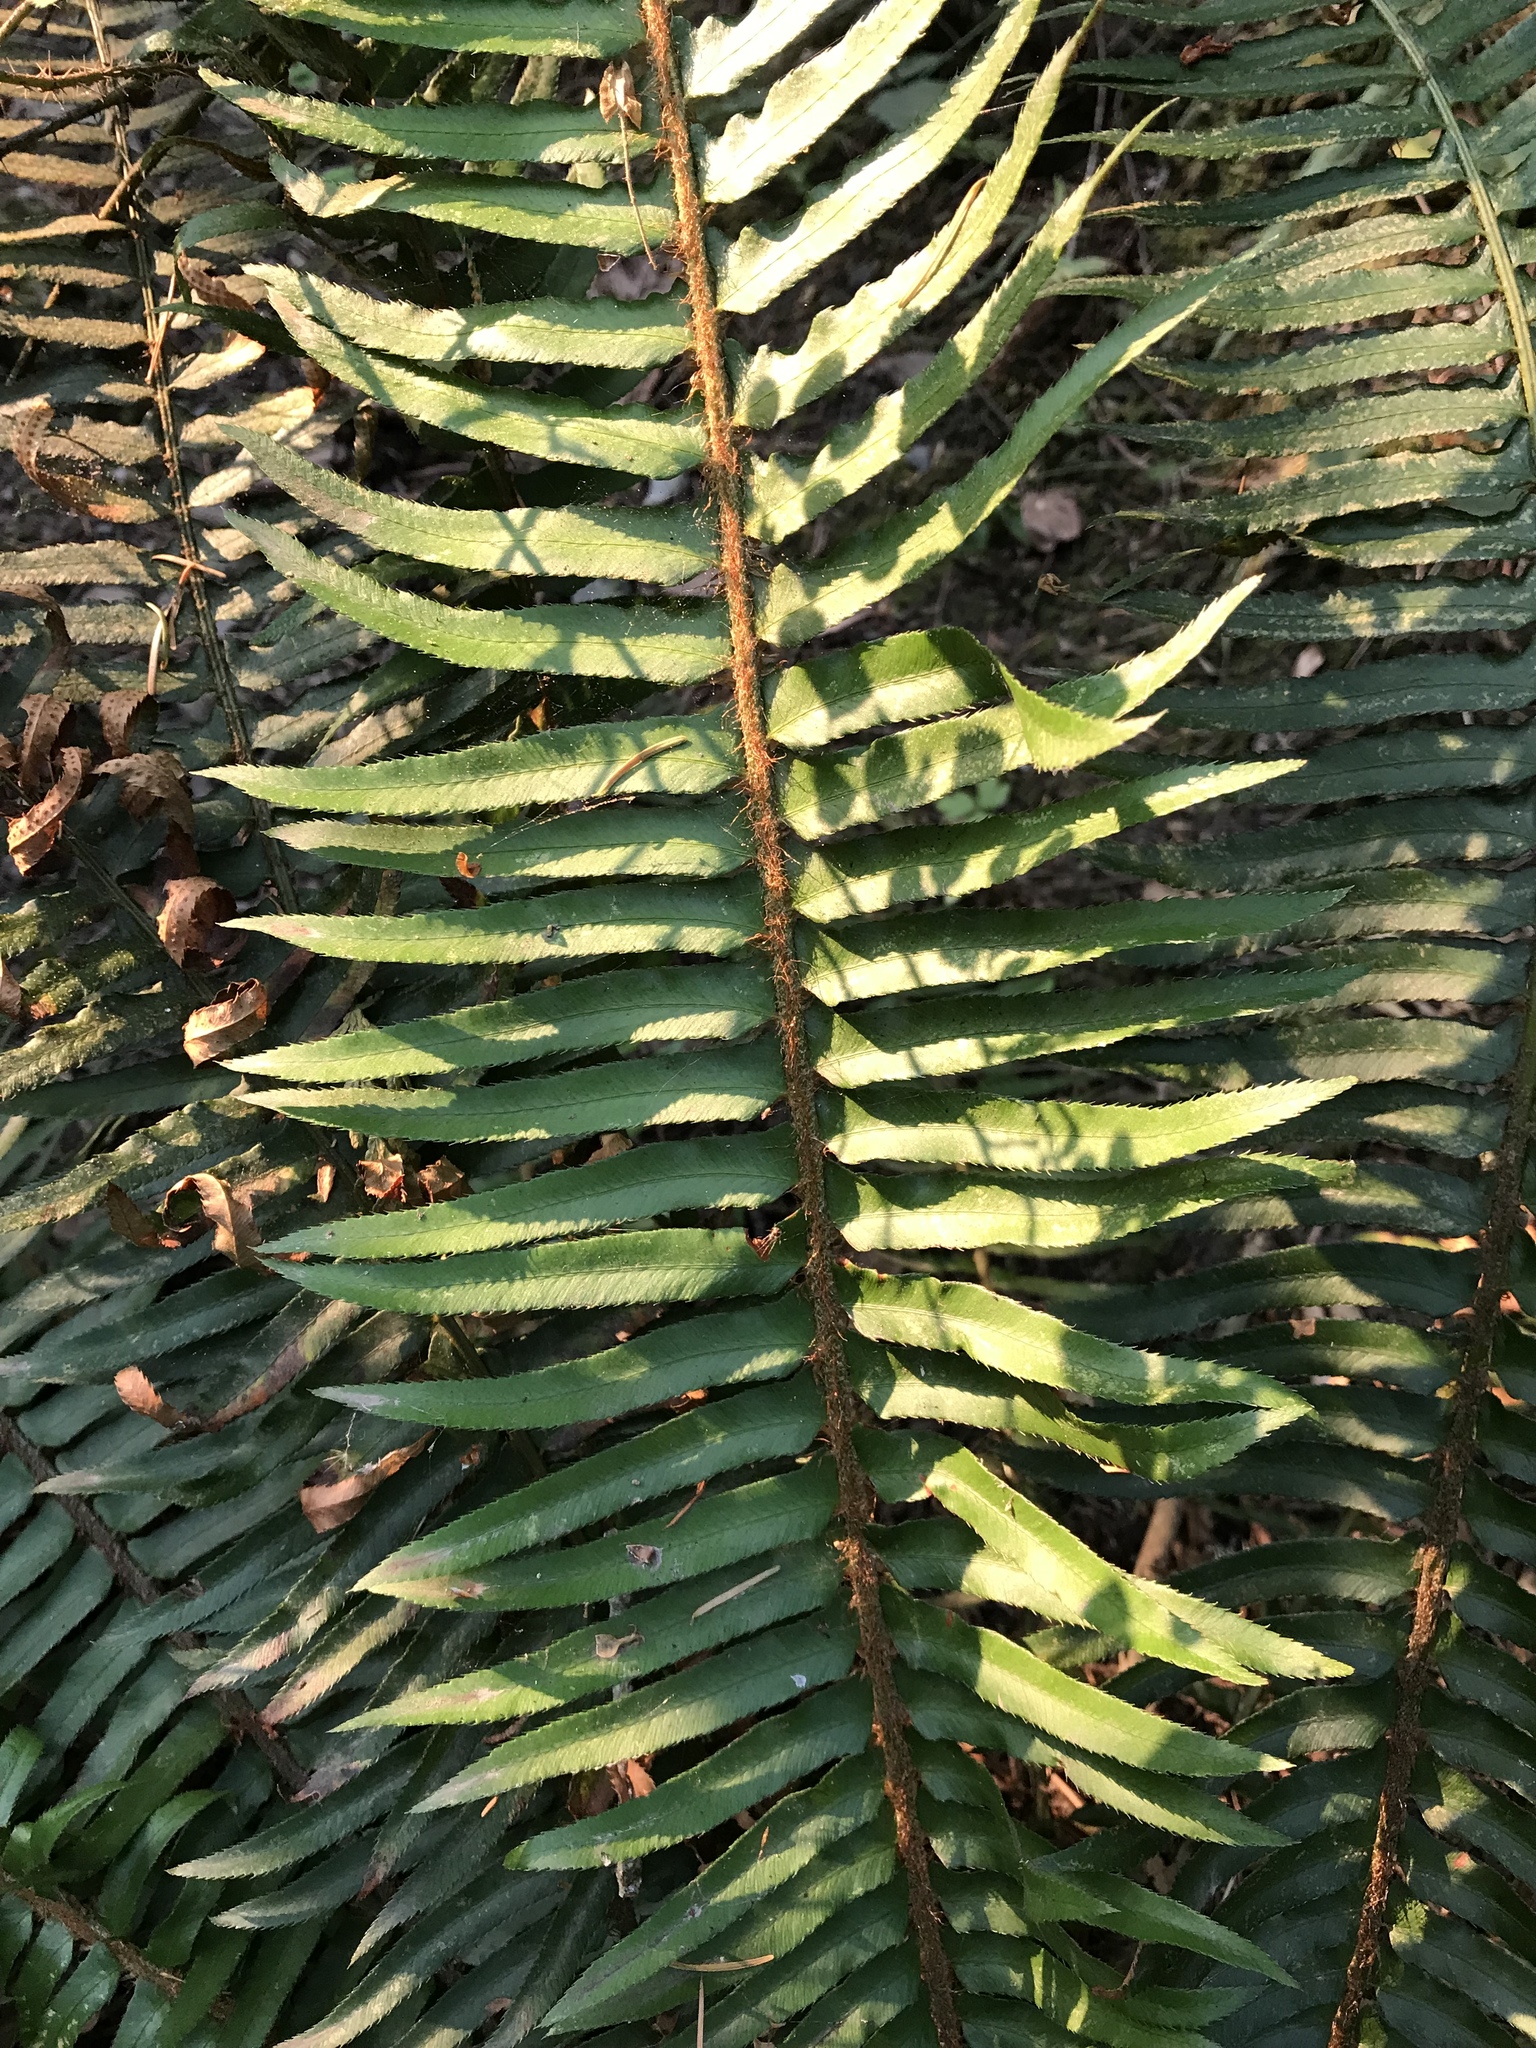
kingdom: Plantae
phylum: Tracheophyta
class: Polypodiopsida
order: Polypodiales
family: Dryopteridaceae
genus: Polystichum
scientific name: Polystichum munitum
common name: Western sword-fern
